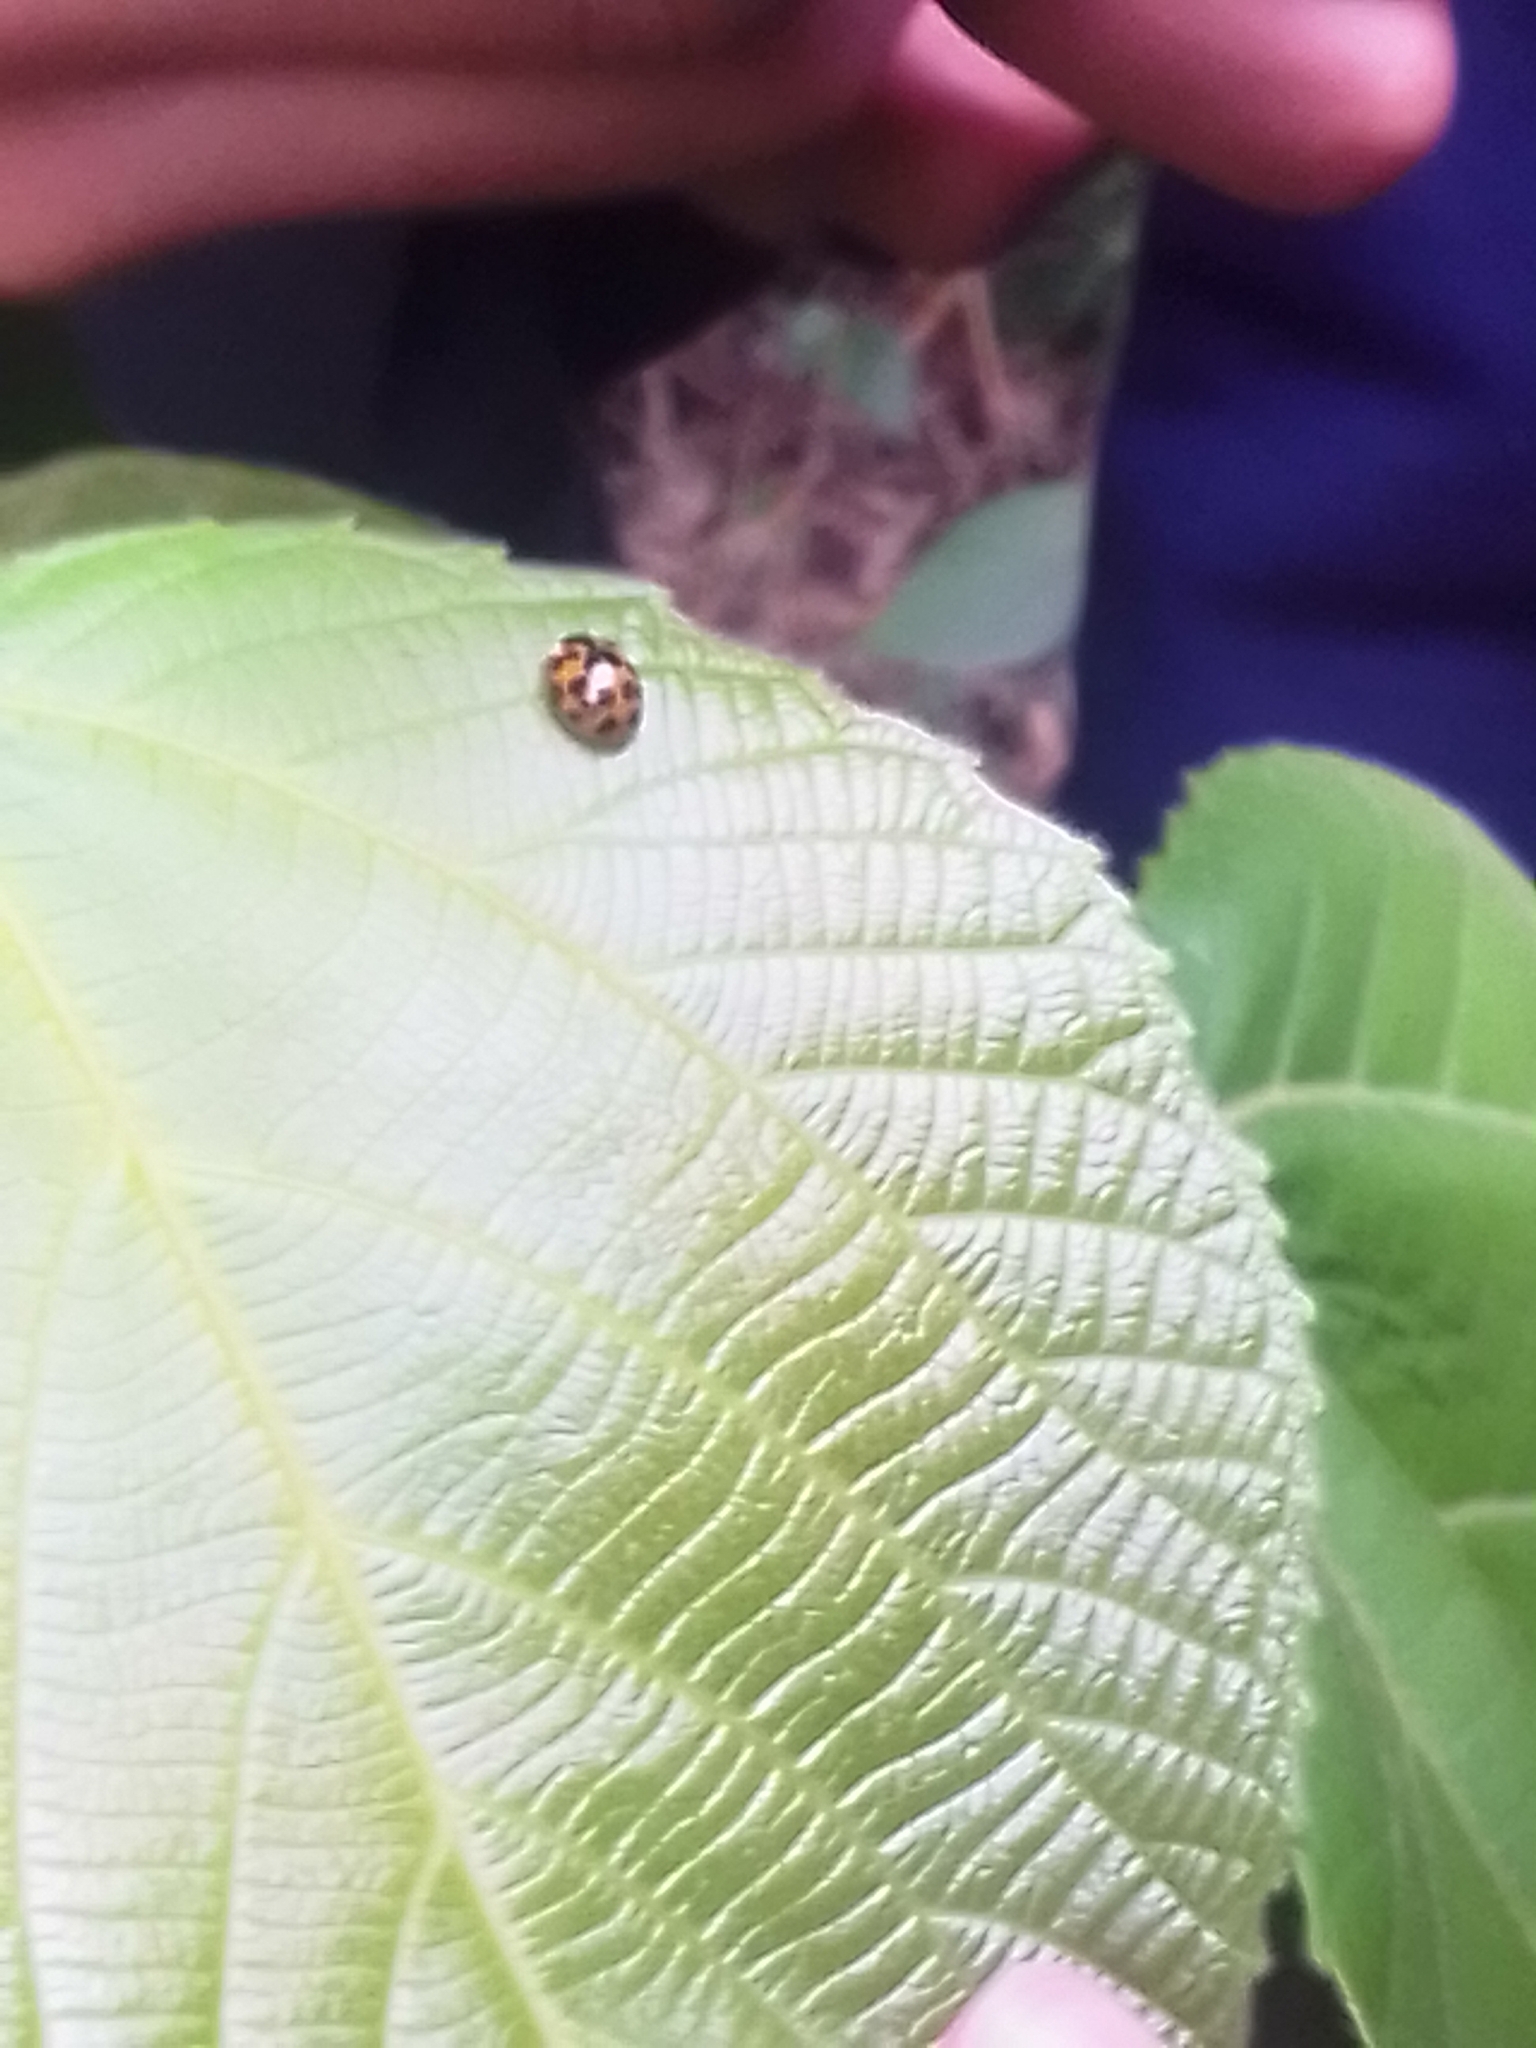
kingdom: Animalia
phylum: Arthropoda
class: Insecta
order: Coleoptera
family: Coccinellidae
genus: Harmonia
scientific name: Harmonia axyridis
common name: Harlequin ladybird
